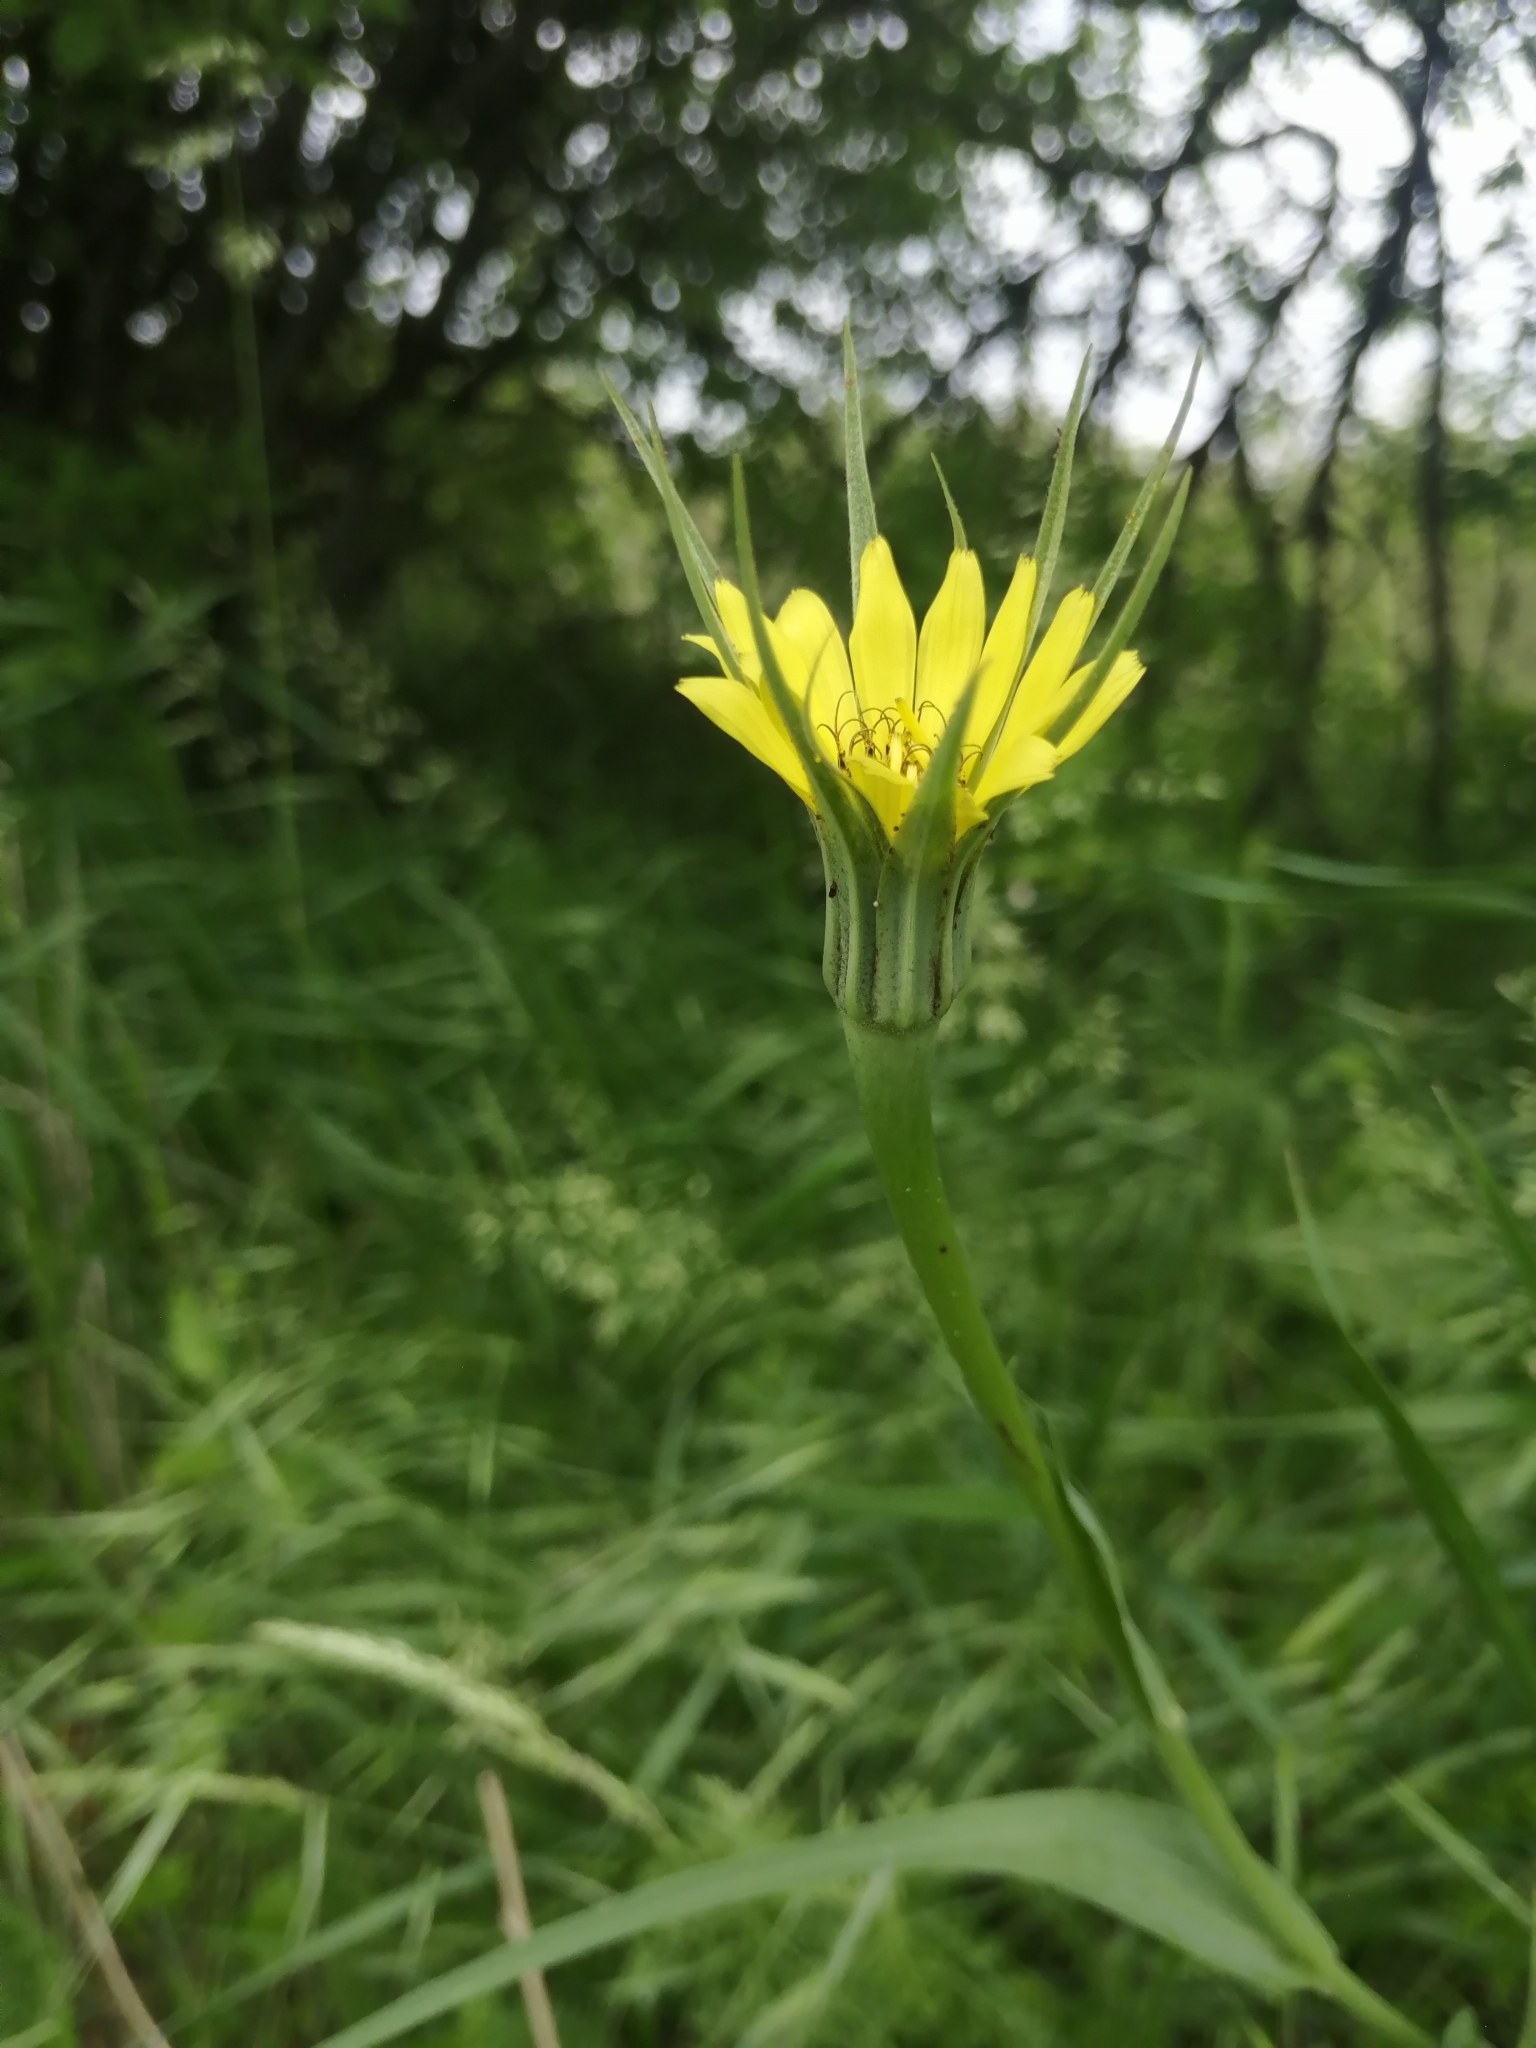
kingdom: Plantae
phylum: Tracheophyta
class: Magnoliopsida
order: Asterales
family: Asteraceae
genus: Tragopogon
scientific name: Tragopogon dubius
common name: Yellow salsify
